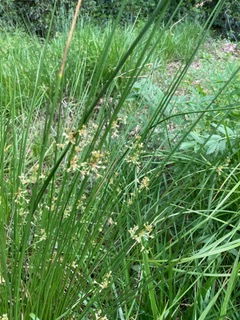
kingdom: Plantae
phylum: Tracheophyta
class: Liliopsida
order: Poales
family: Juncaceae
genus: Juncus
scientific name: Juncus effusus
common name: Soft rush
